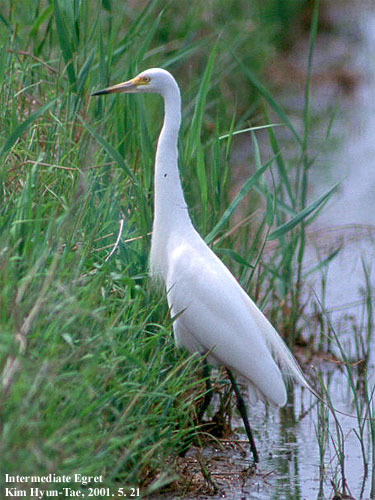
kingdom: Animalia
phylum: Chordata
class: Aves
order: Pelecaniformes
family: Ardeidae
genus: Egretta
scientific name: Egretta intermedia
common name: Intermediate egret
